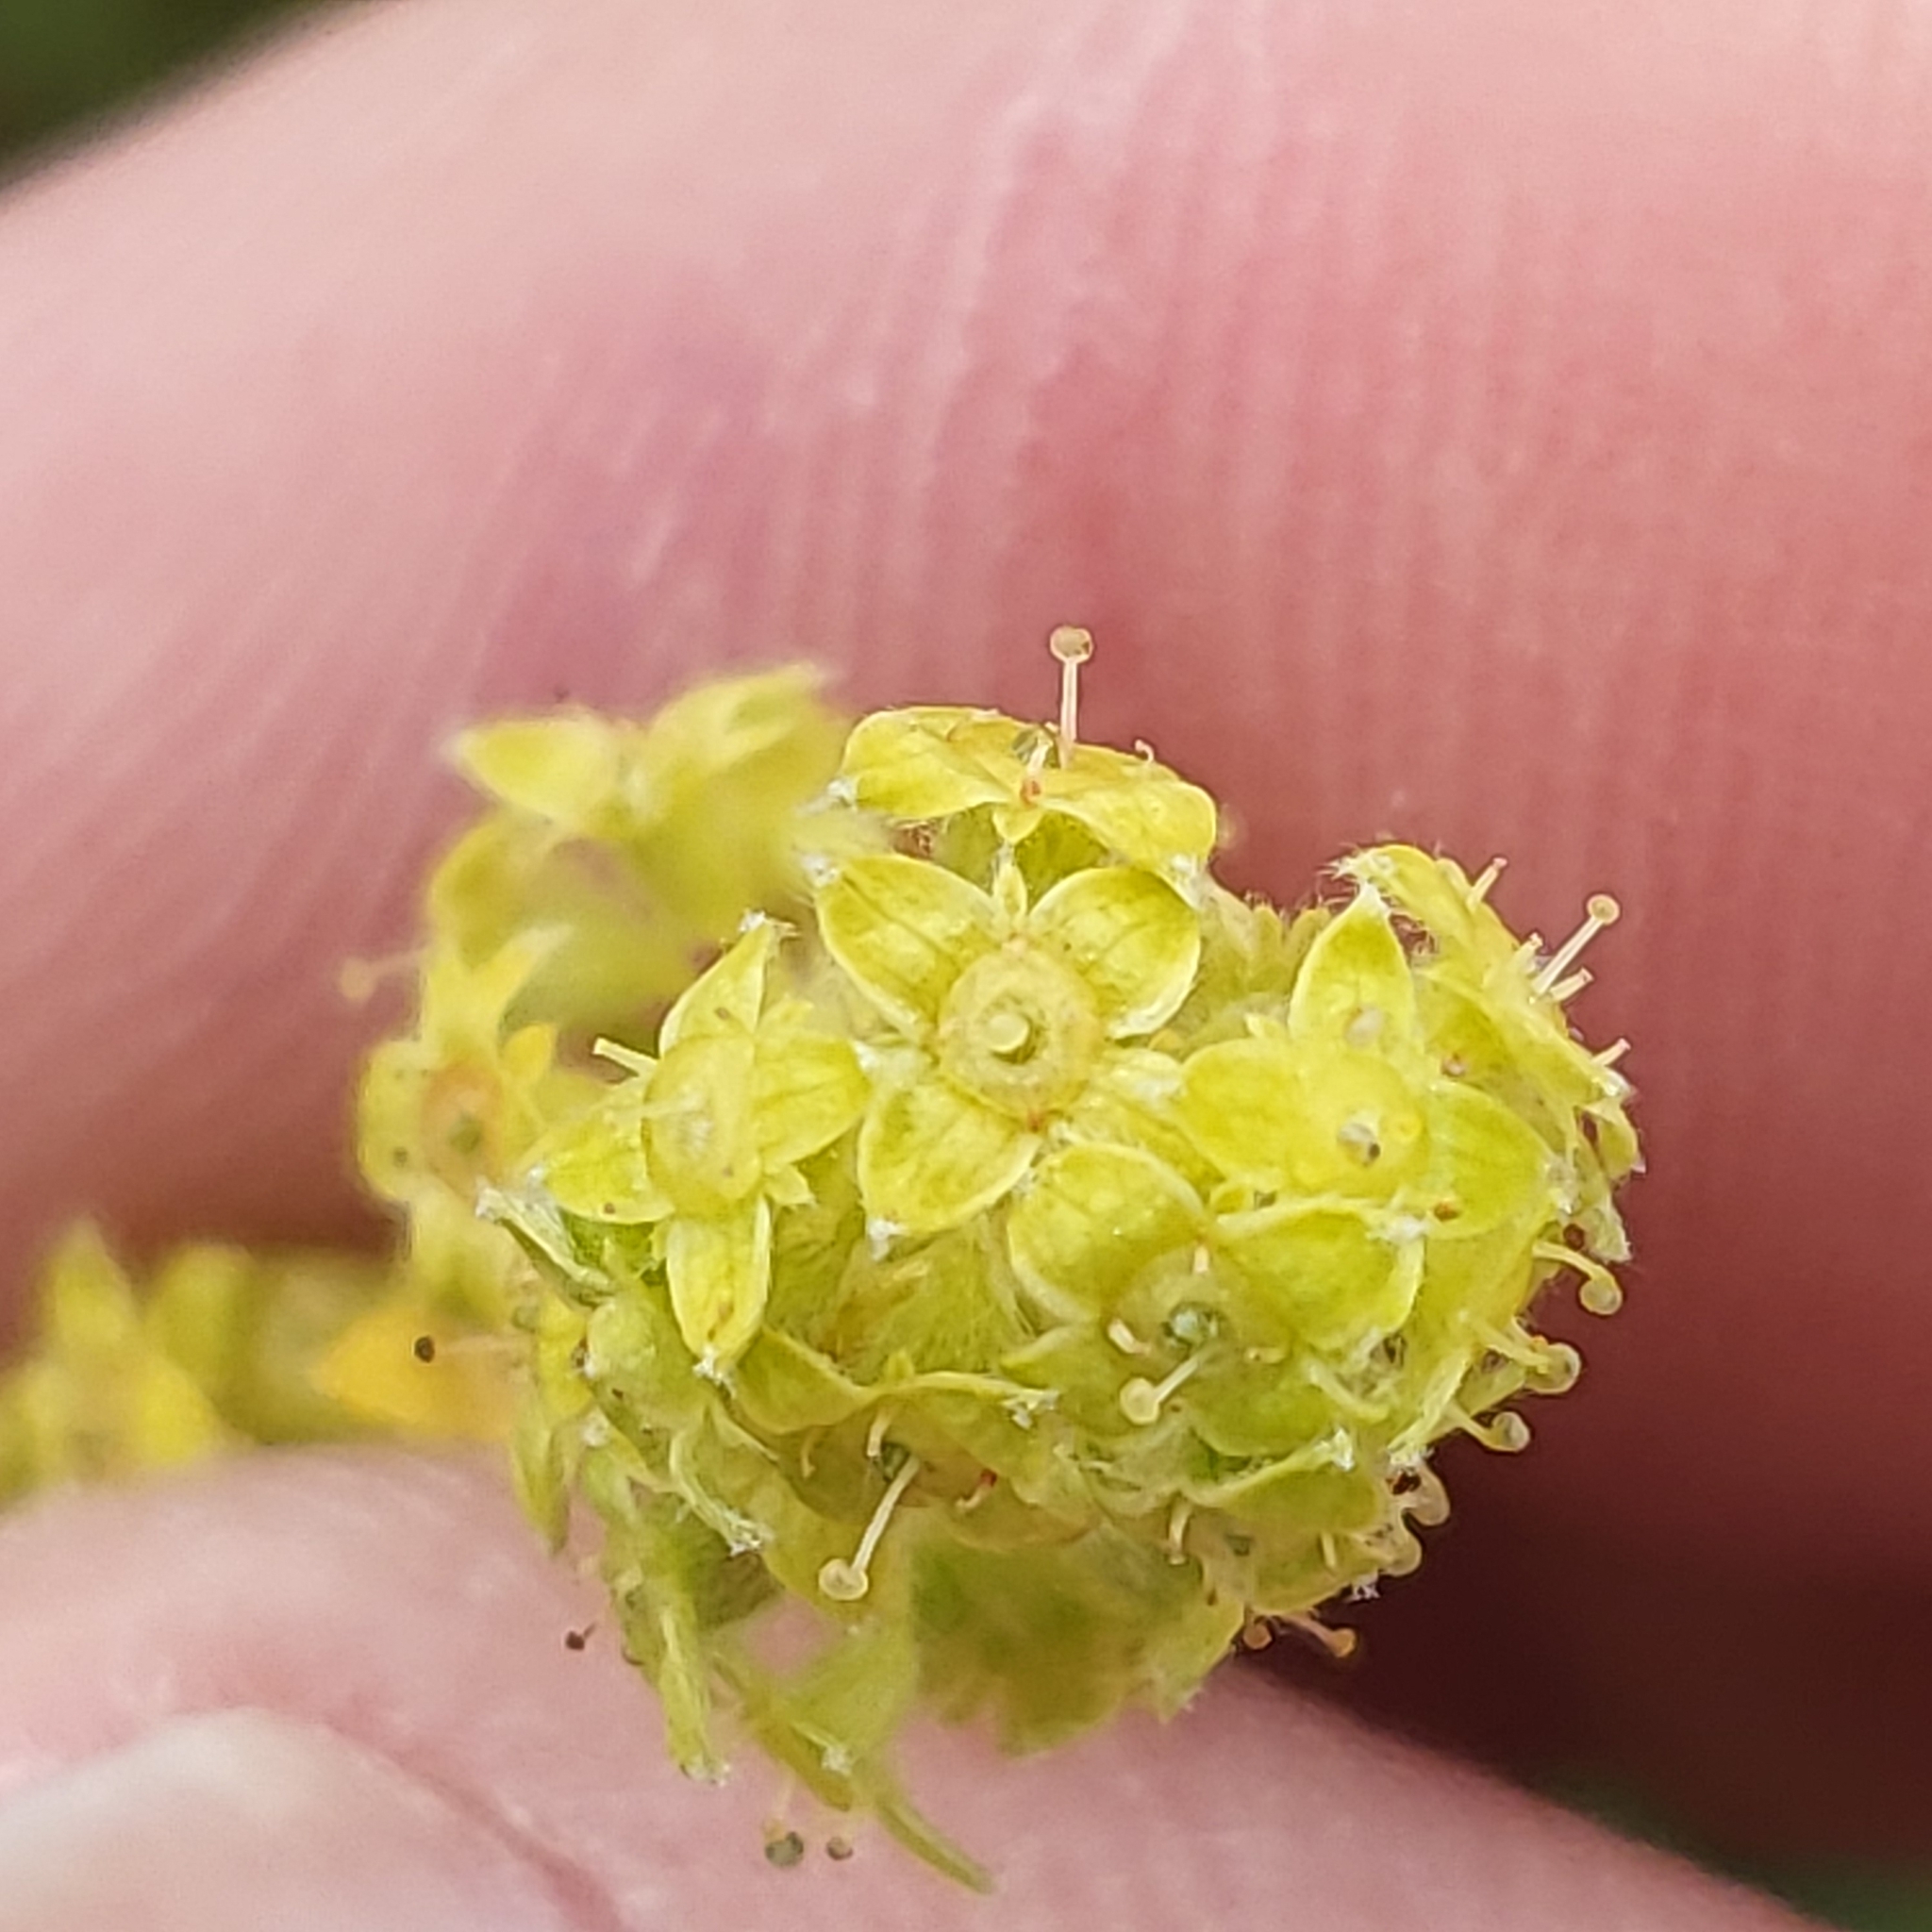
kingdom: Plantae
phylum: Tracheophyta
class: Magnoliopsida
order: Rosales
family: Rosaceae
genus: Alchemilla
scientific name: Alchemilla alpina
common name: Alpine lady's-mantle
